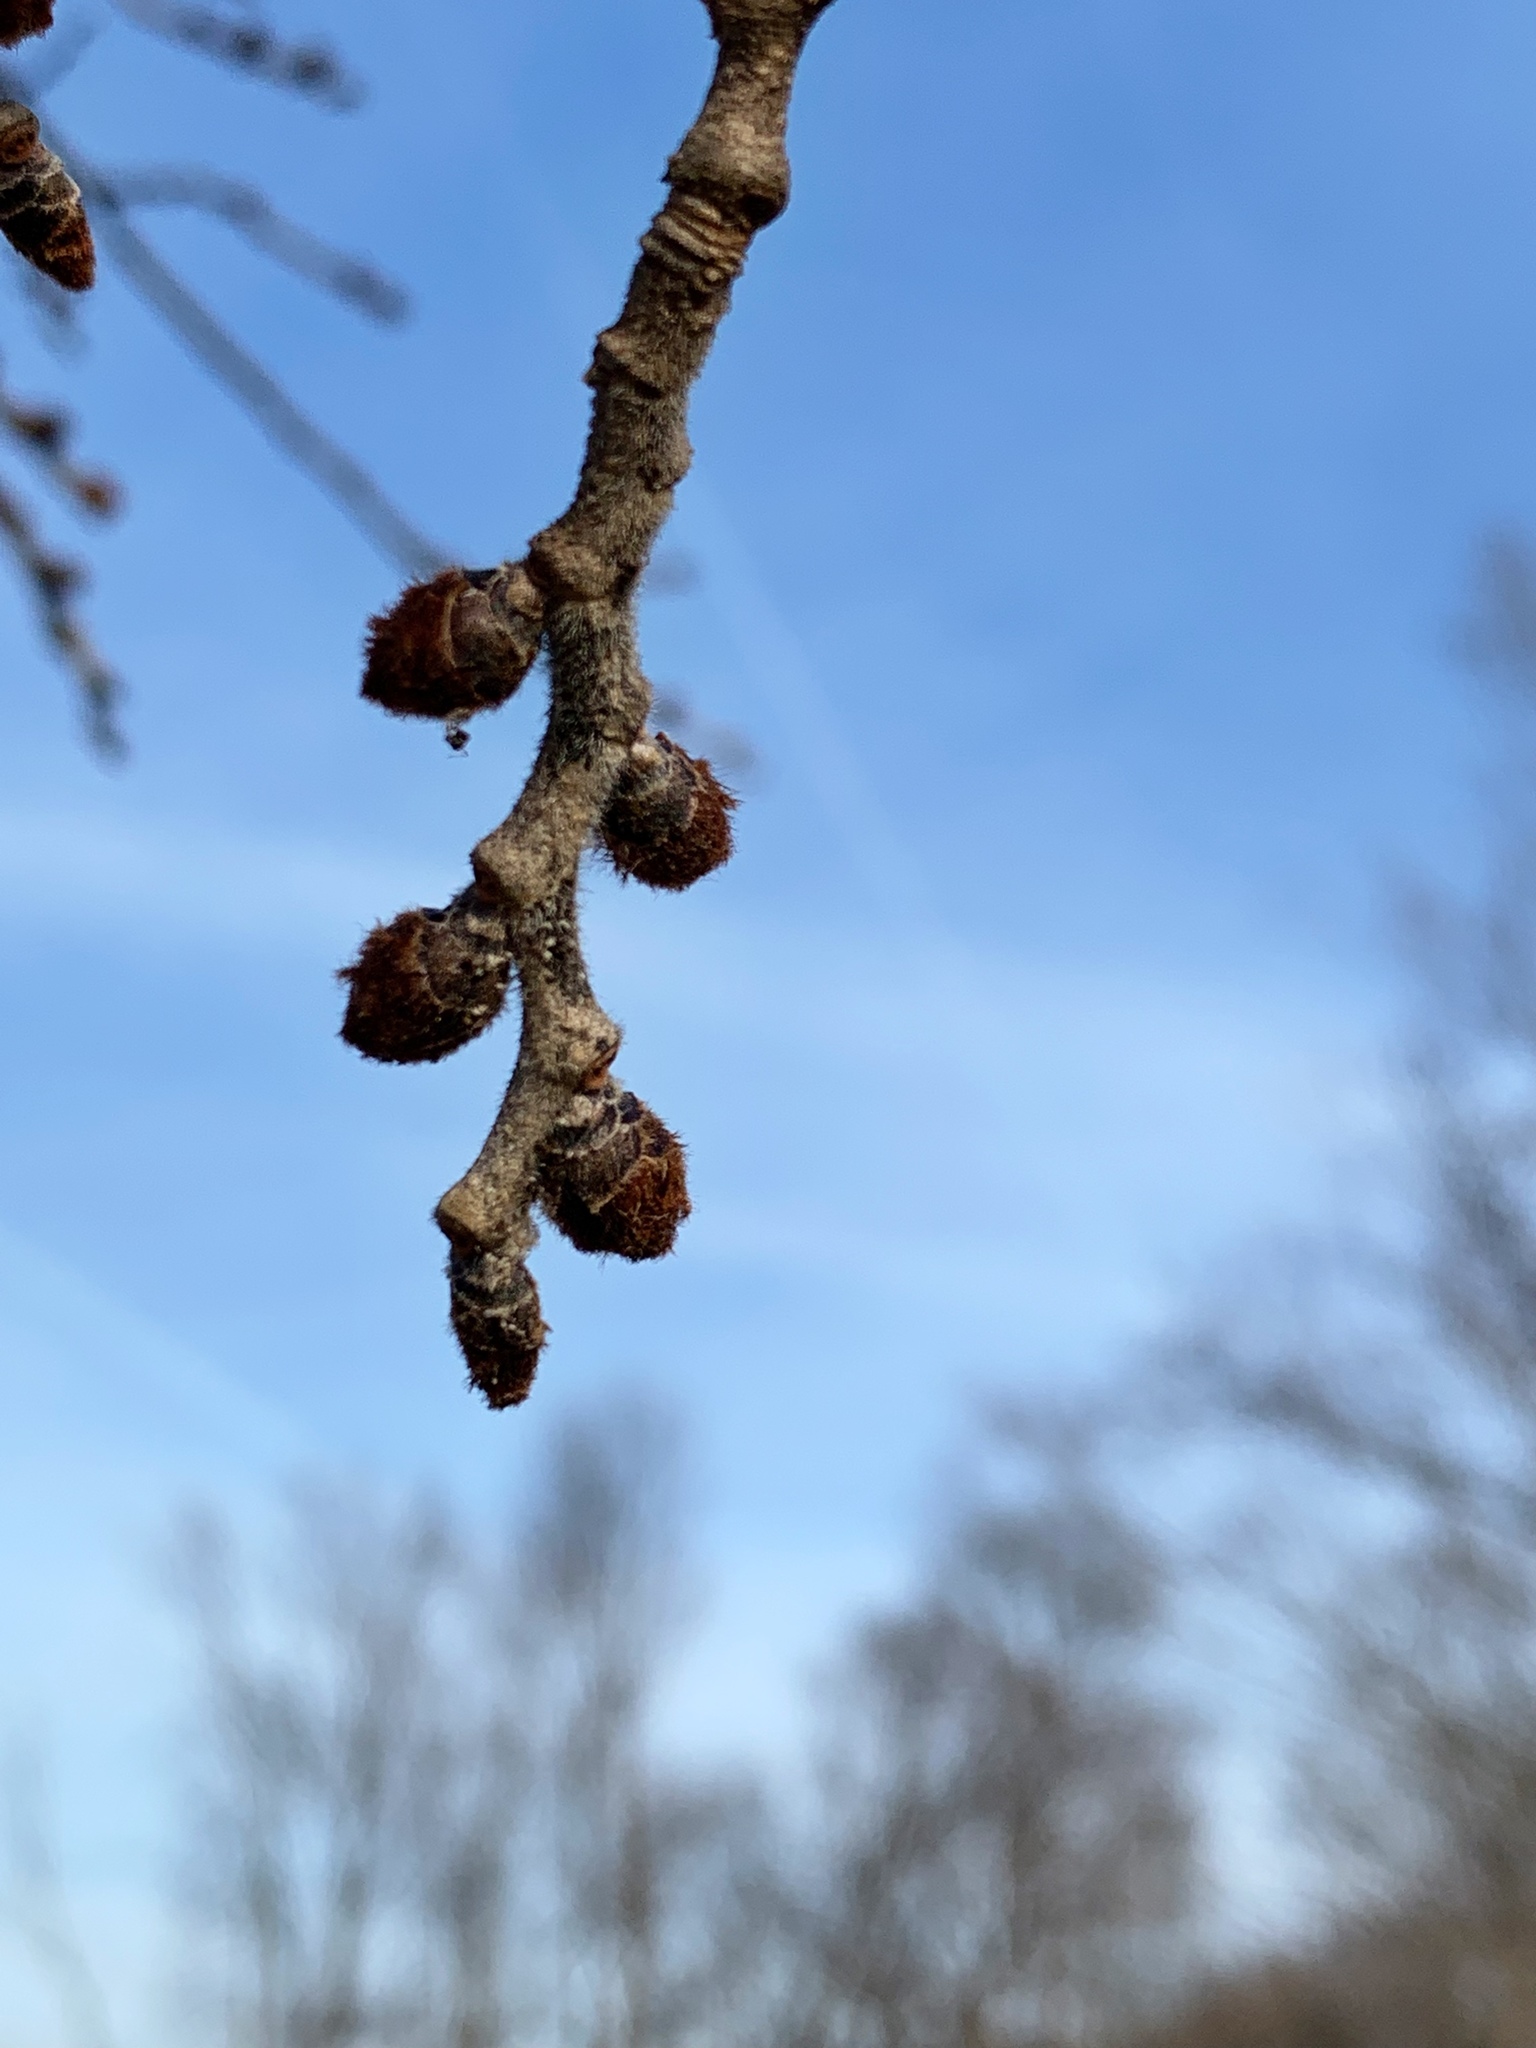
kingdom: Plantae
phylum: Tracheophyta
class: Magnoliopsida
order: Rosales
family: Ulmaceae
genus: Ulmus
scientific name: Ulmus rubra
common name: Slippery elm
